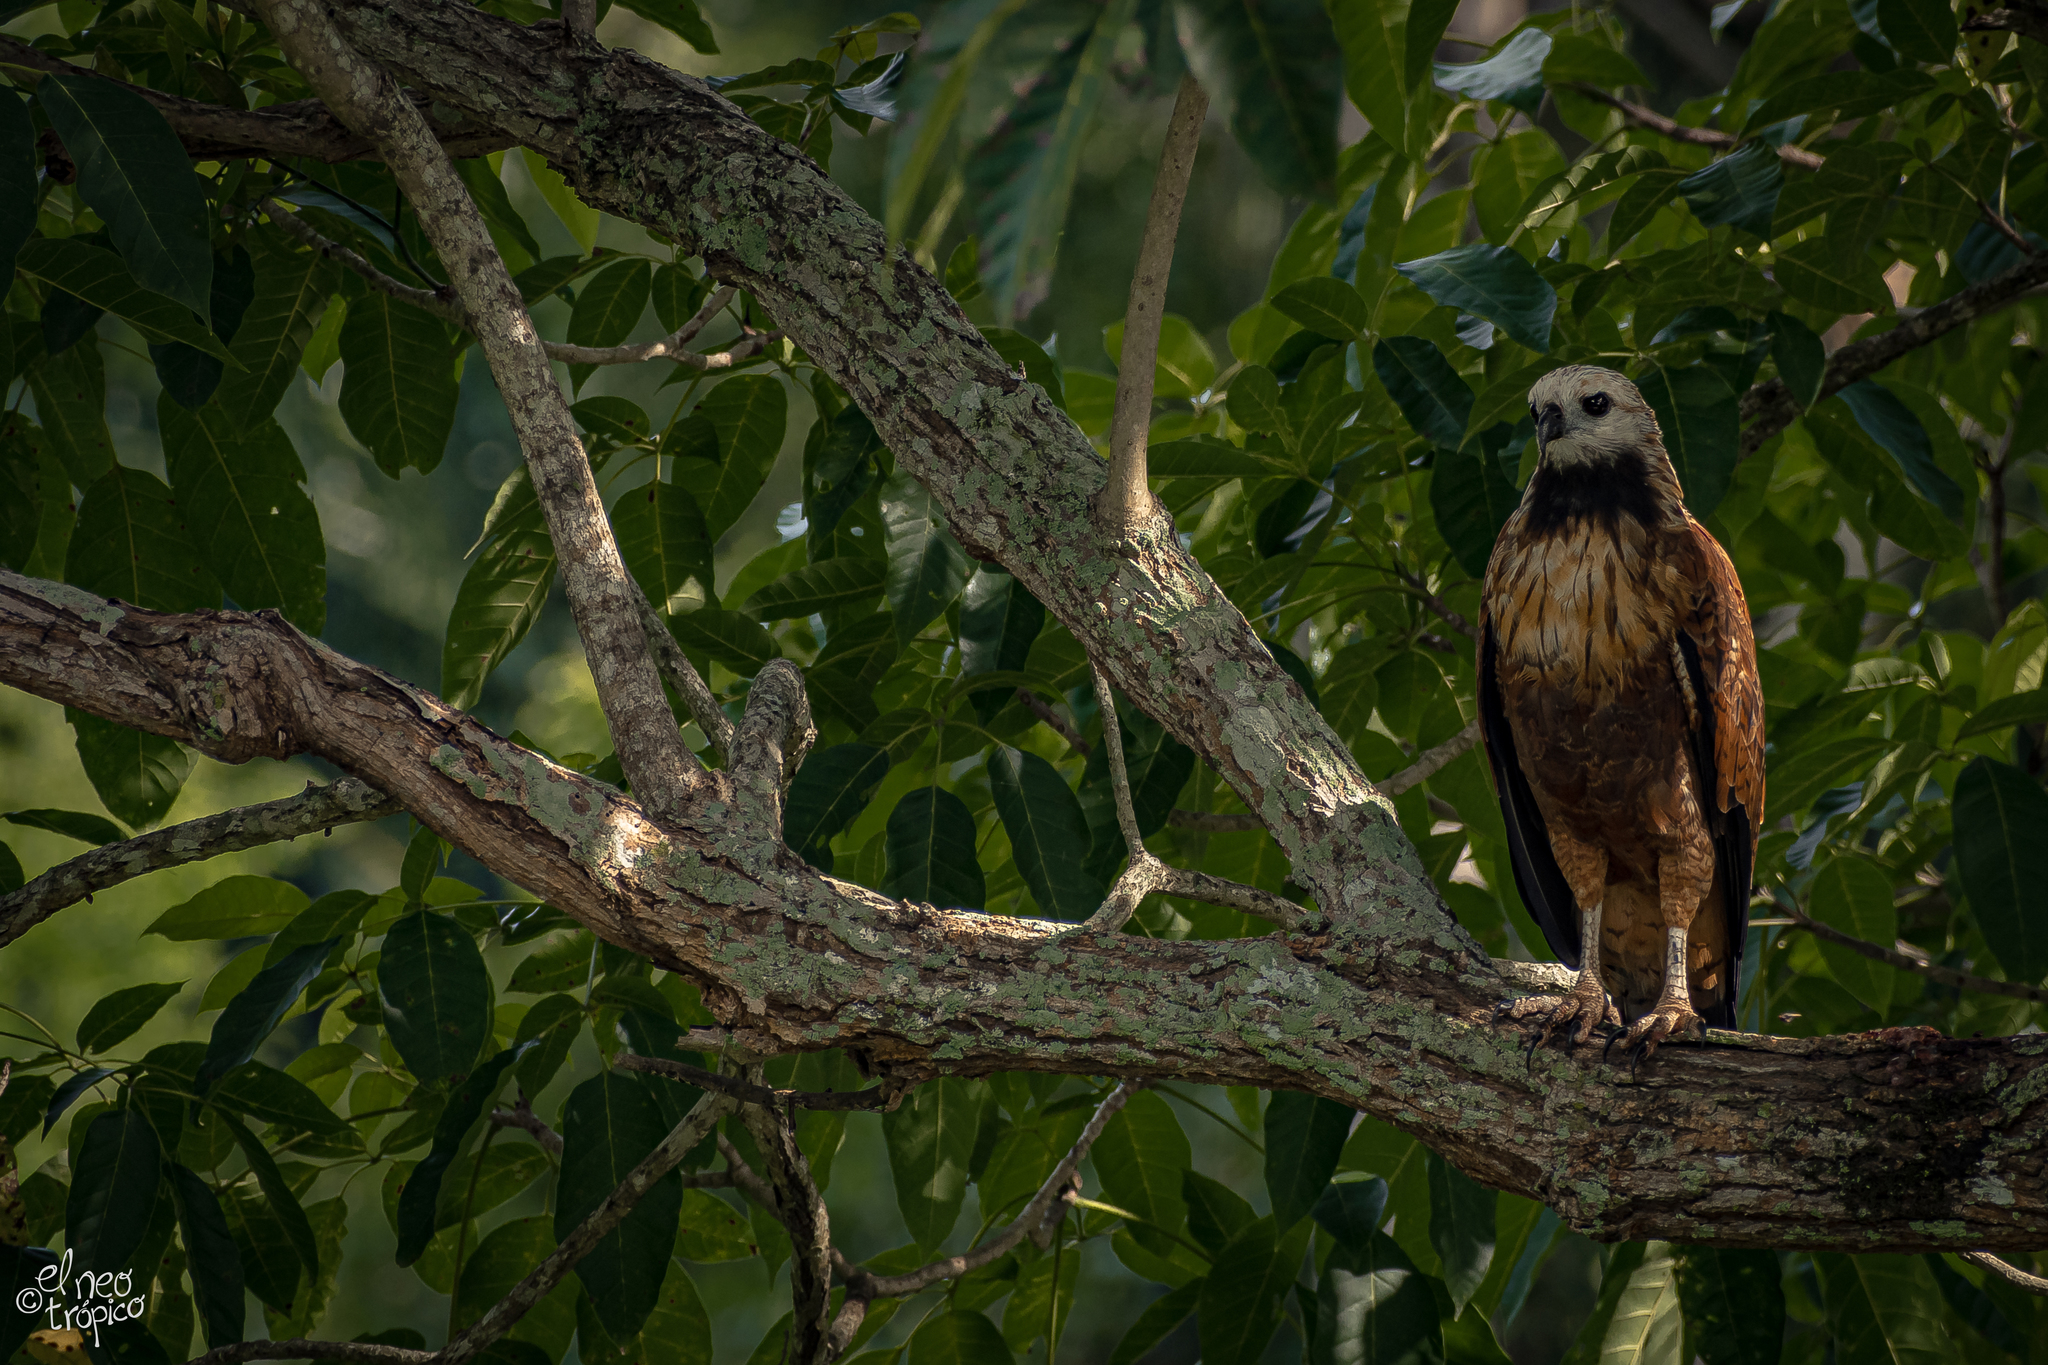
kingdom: Animalia
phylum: Chordata
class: Aves
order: Accipitriformes
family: Accipitridae
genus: Busarellus
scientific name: Busarellus nigricollis
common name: Black-collared hawk
